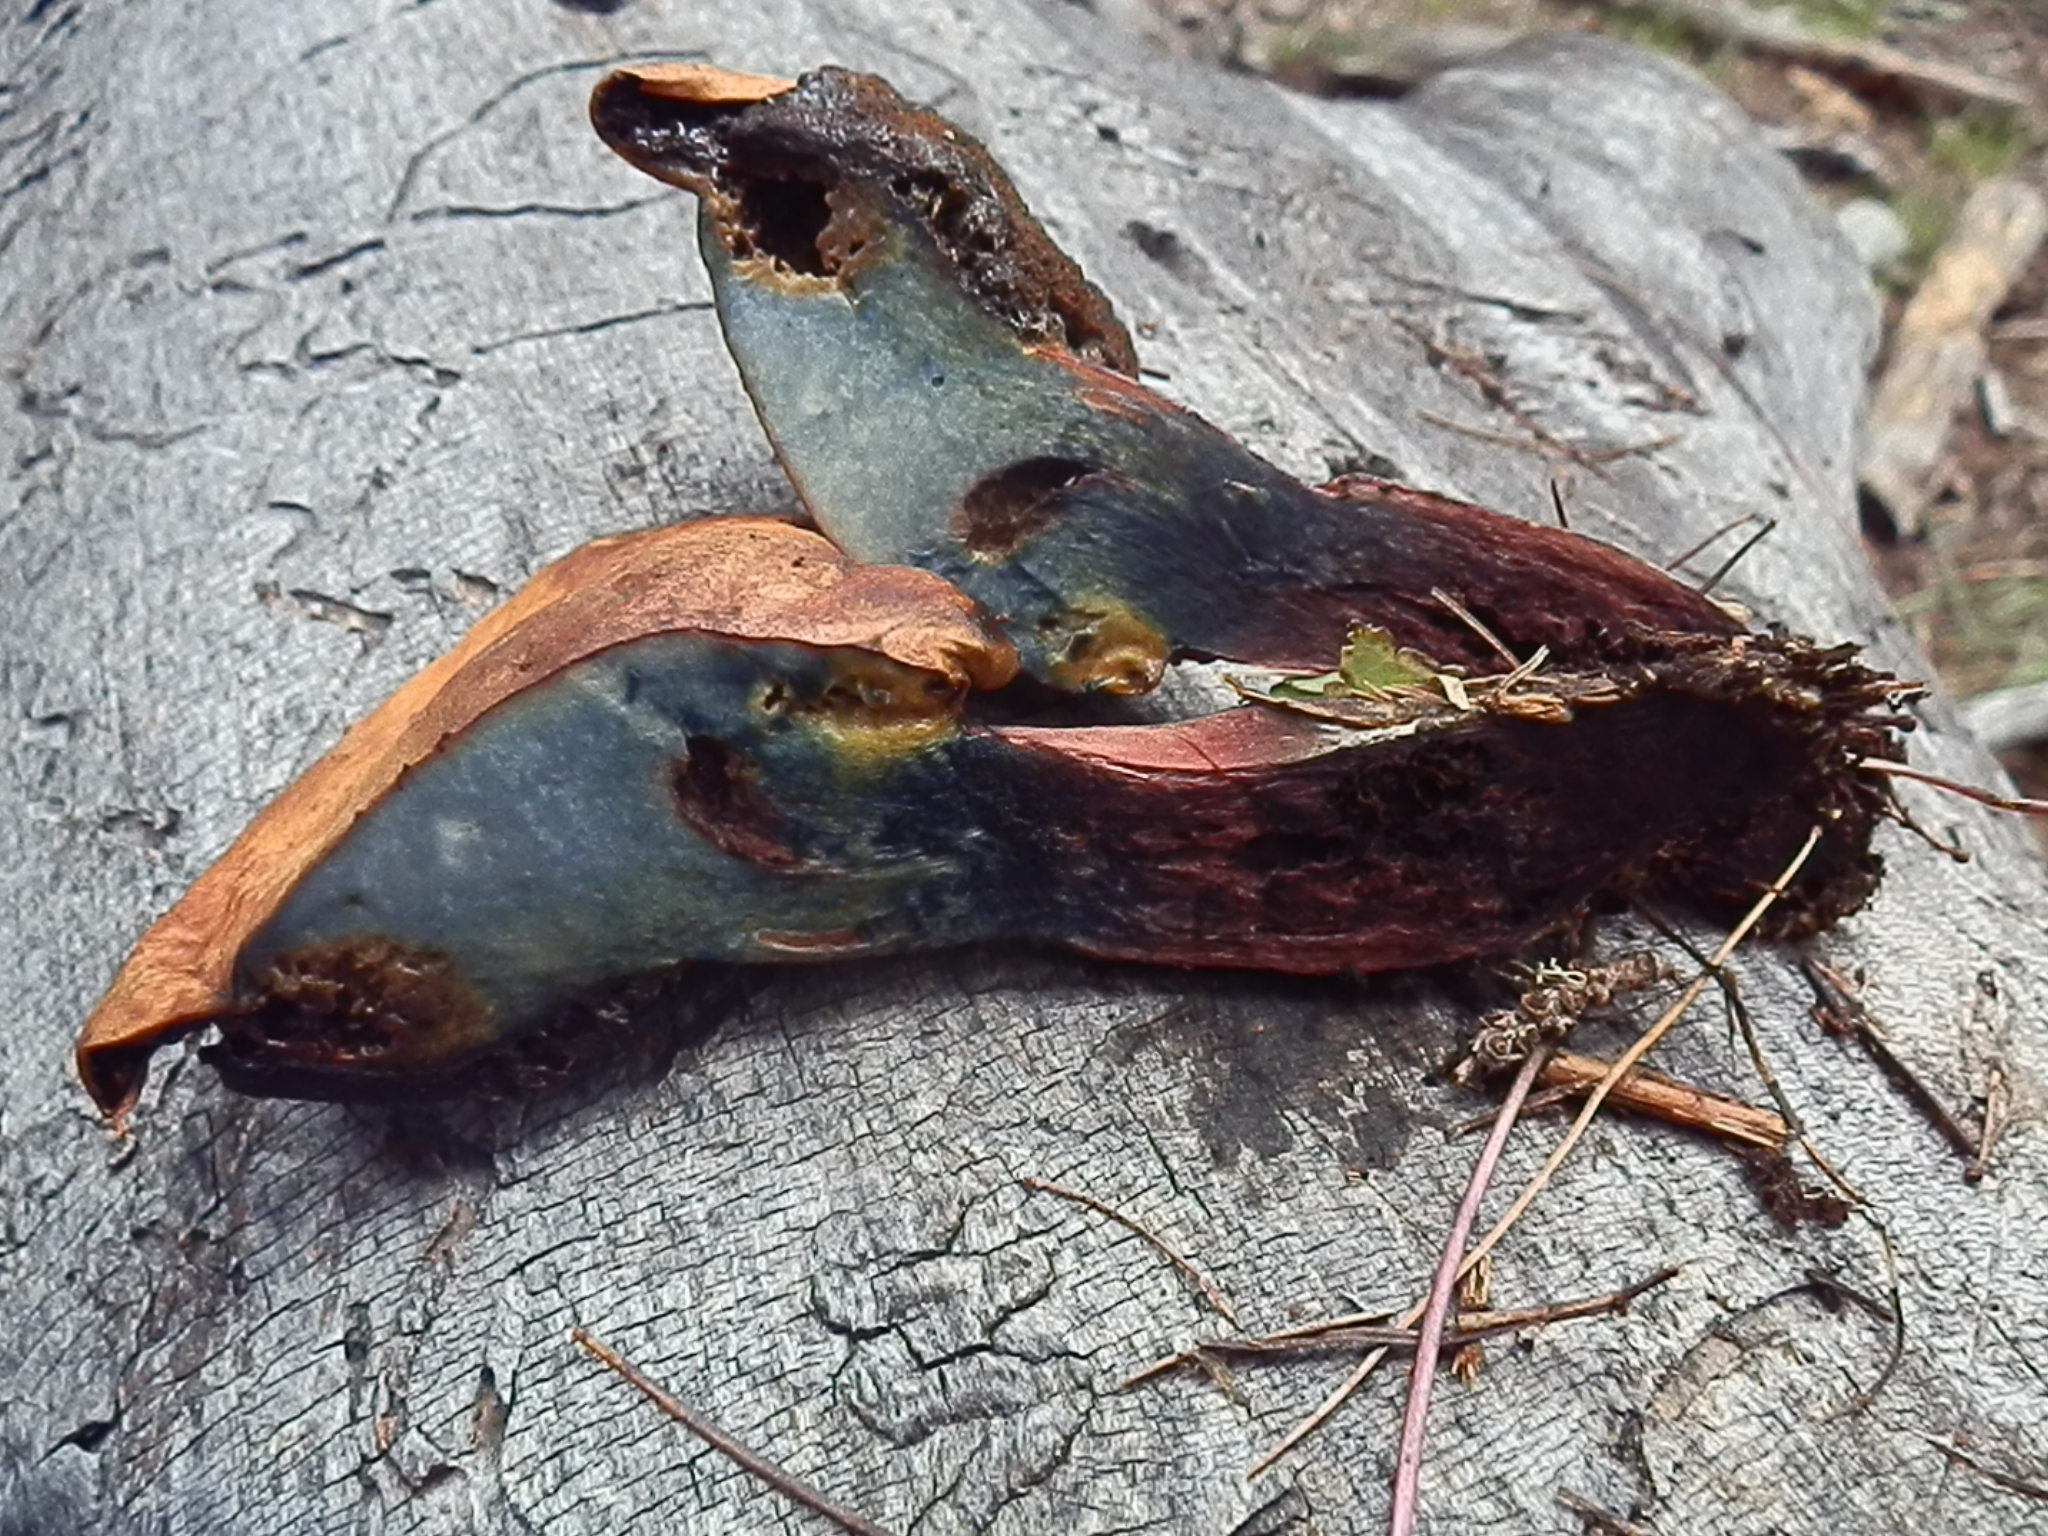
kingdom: Fungi
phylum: Basidiomycota
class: Agaricomycetes
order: Boletales
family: Boletaceae
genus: Caloboletus
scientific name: Caloboletus rubripes
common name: Red-footed bitter bolete
